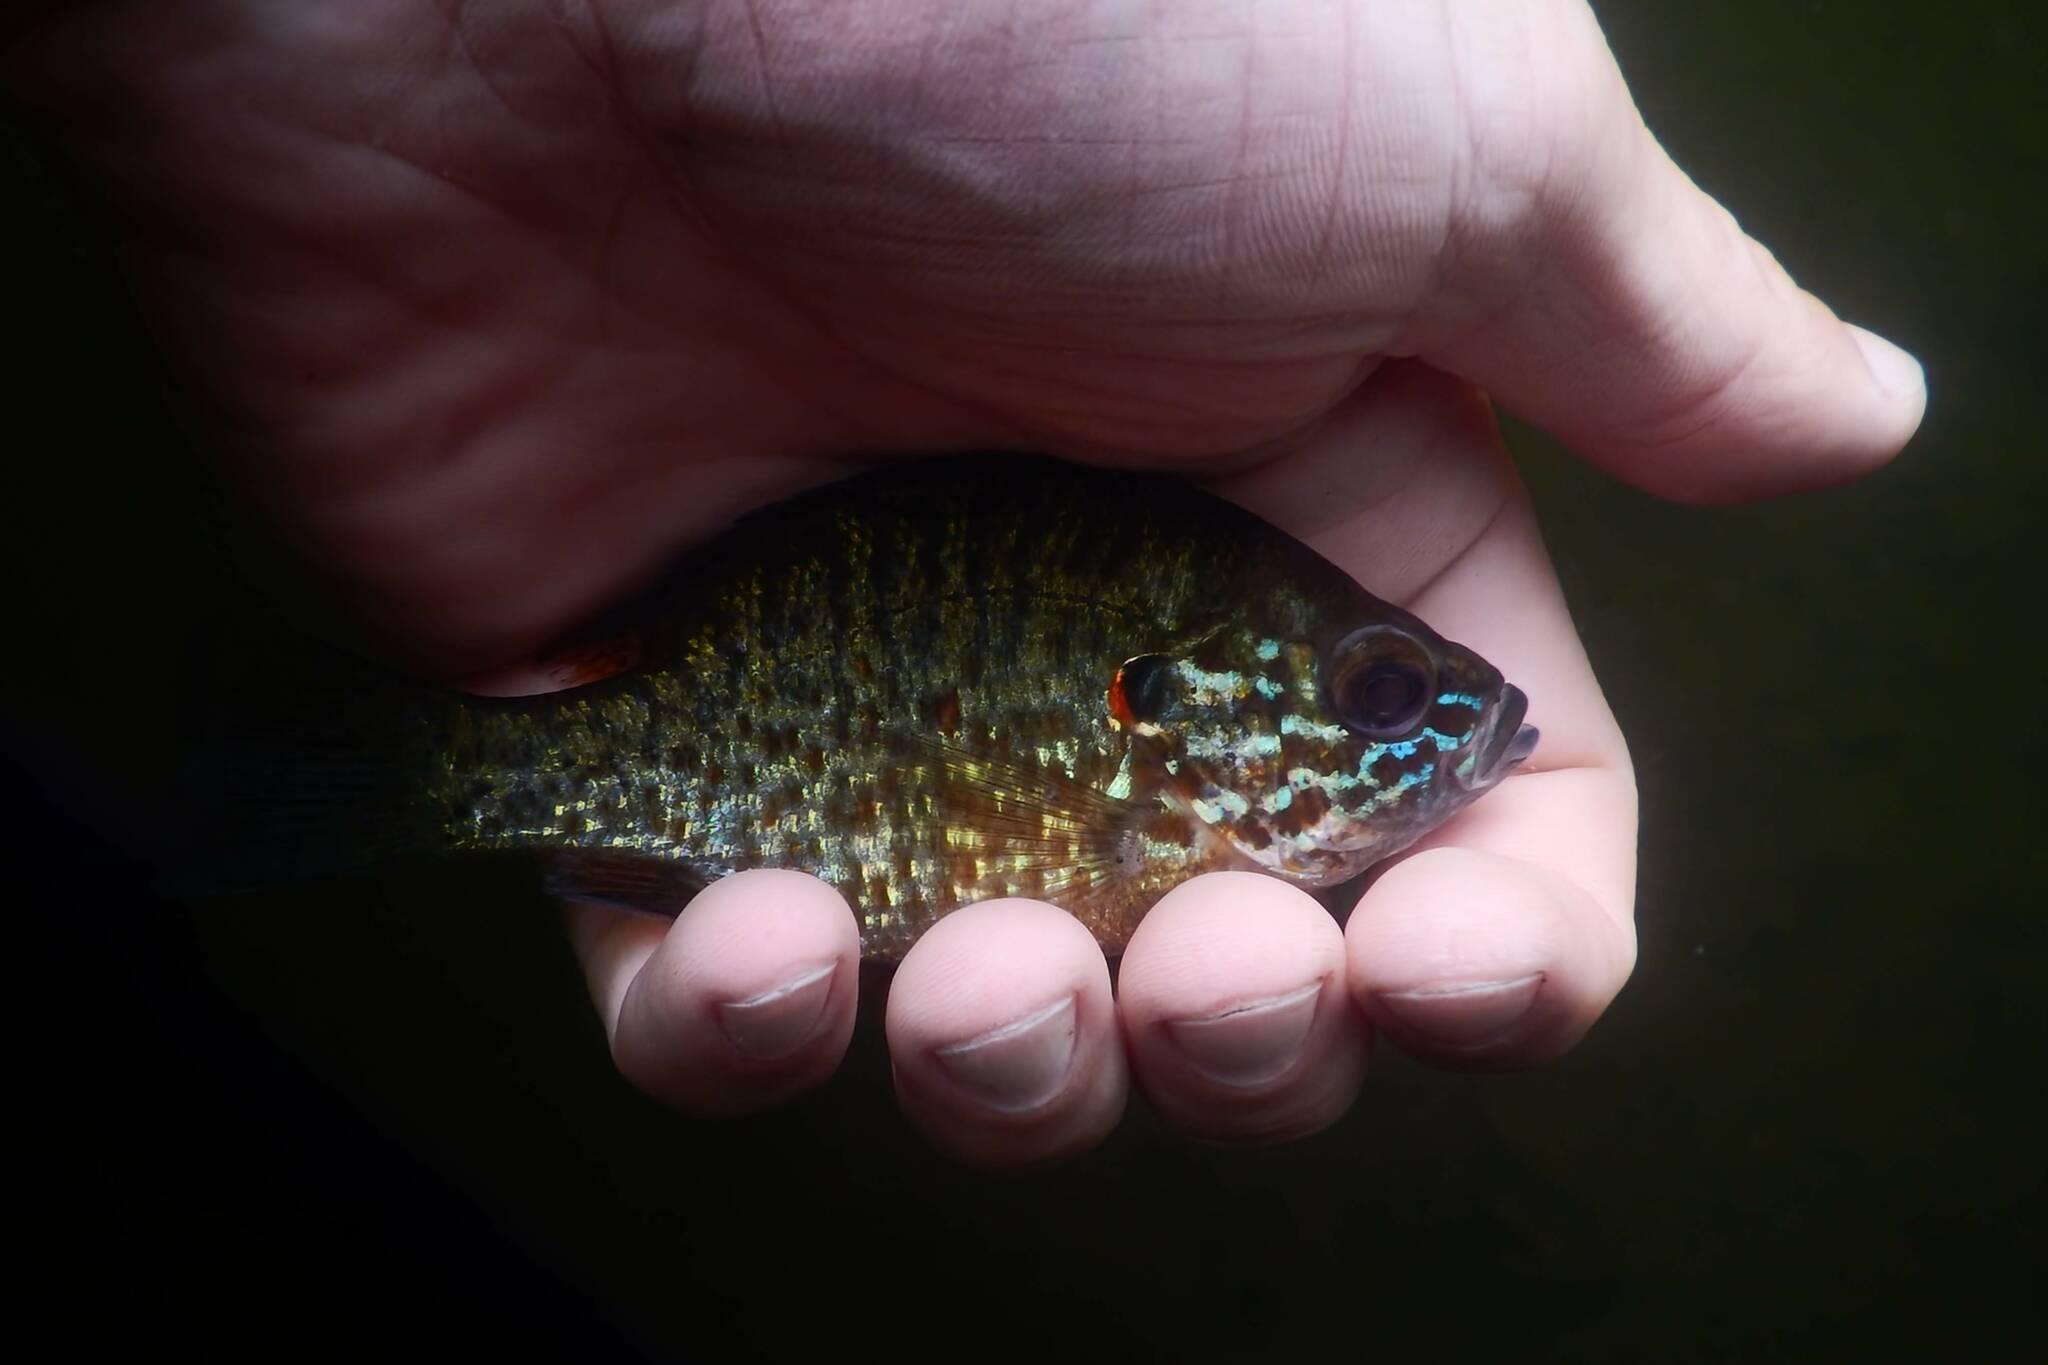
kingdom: Animalia
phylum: Chordata
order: Perciformes
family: Centrarchidae
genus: Lepomis
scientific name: Lepomis gibbosus
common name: Pumpkinseed
